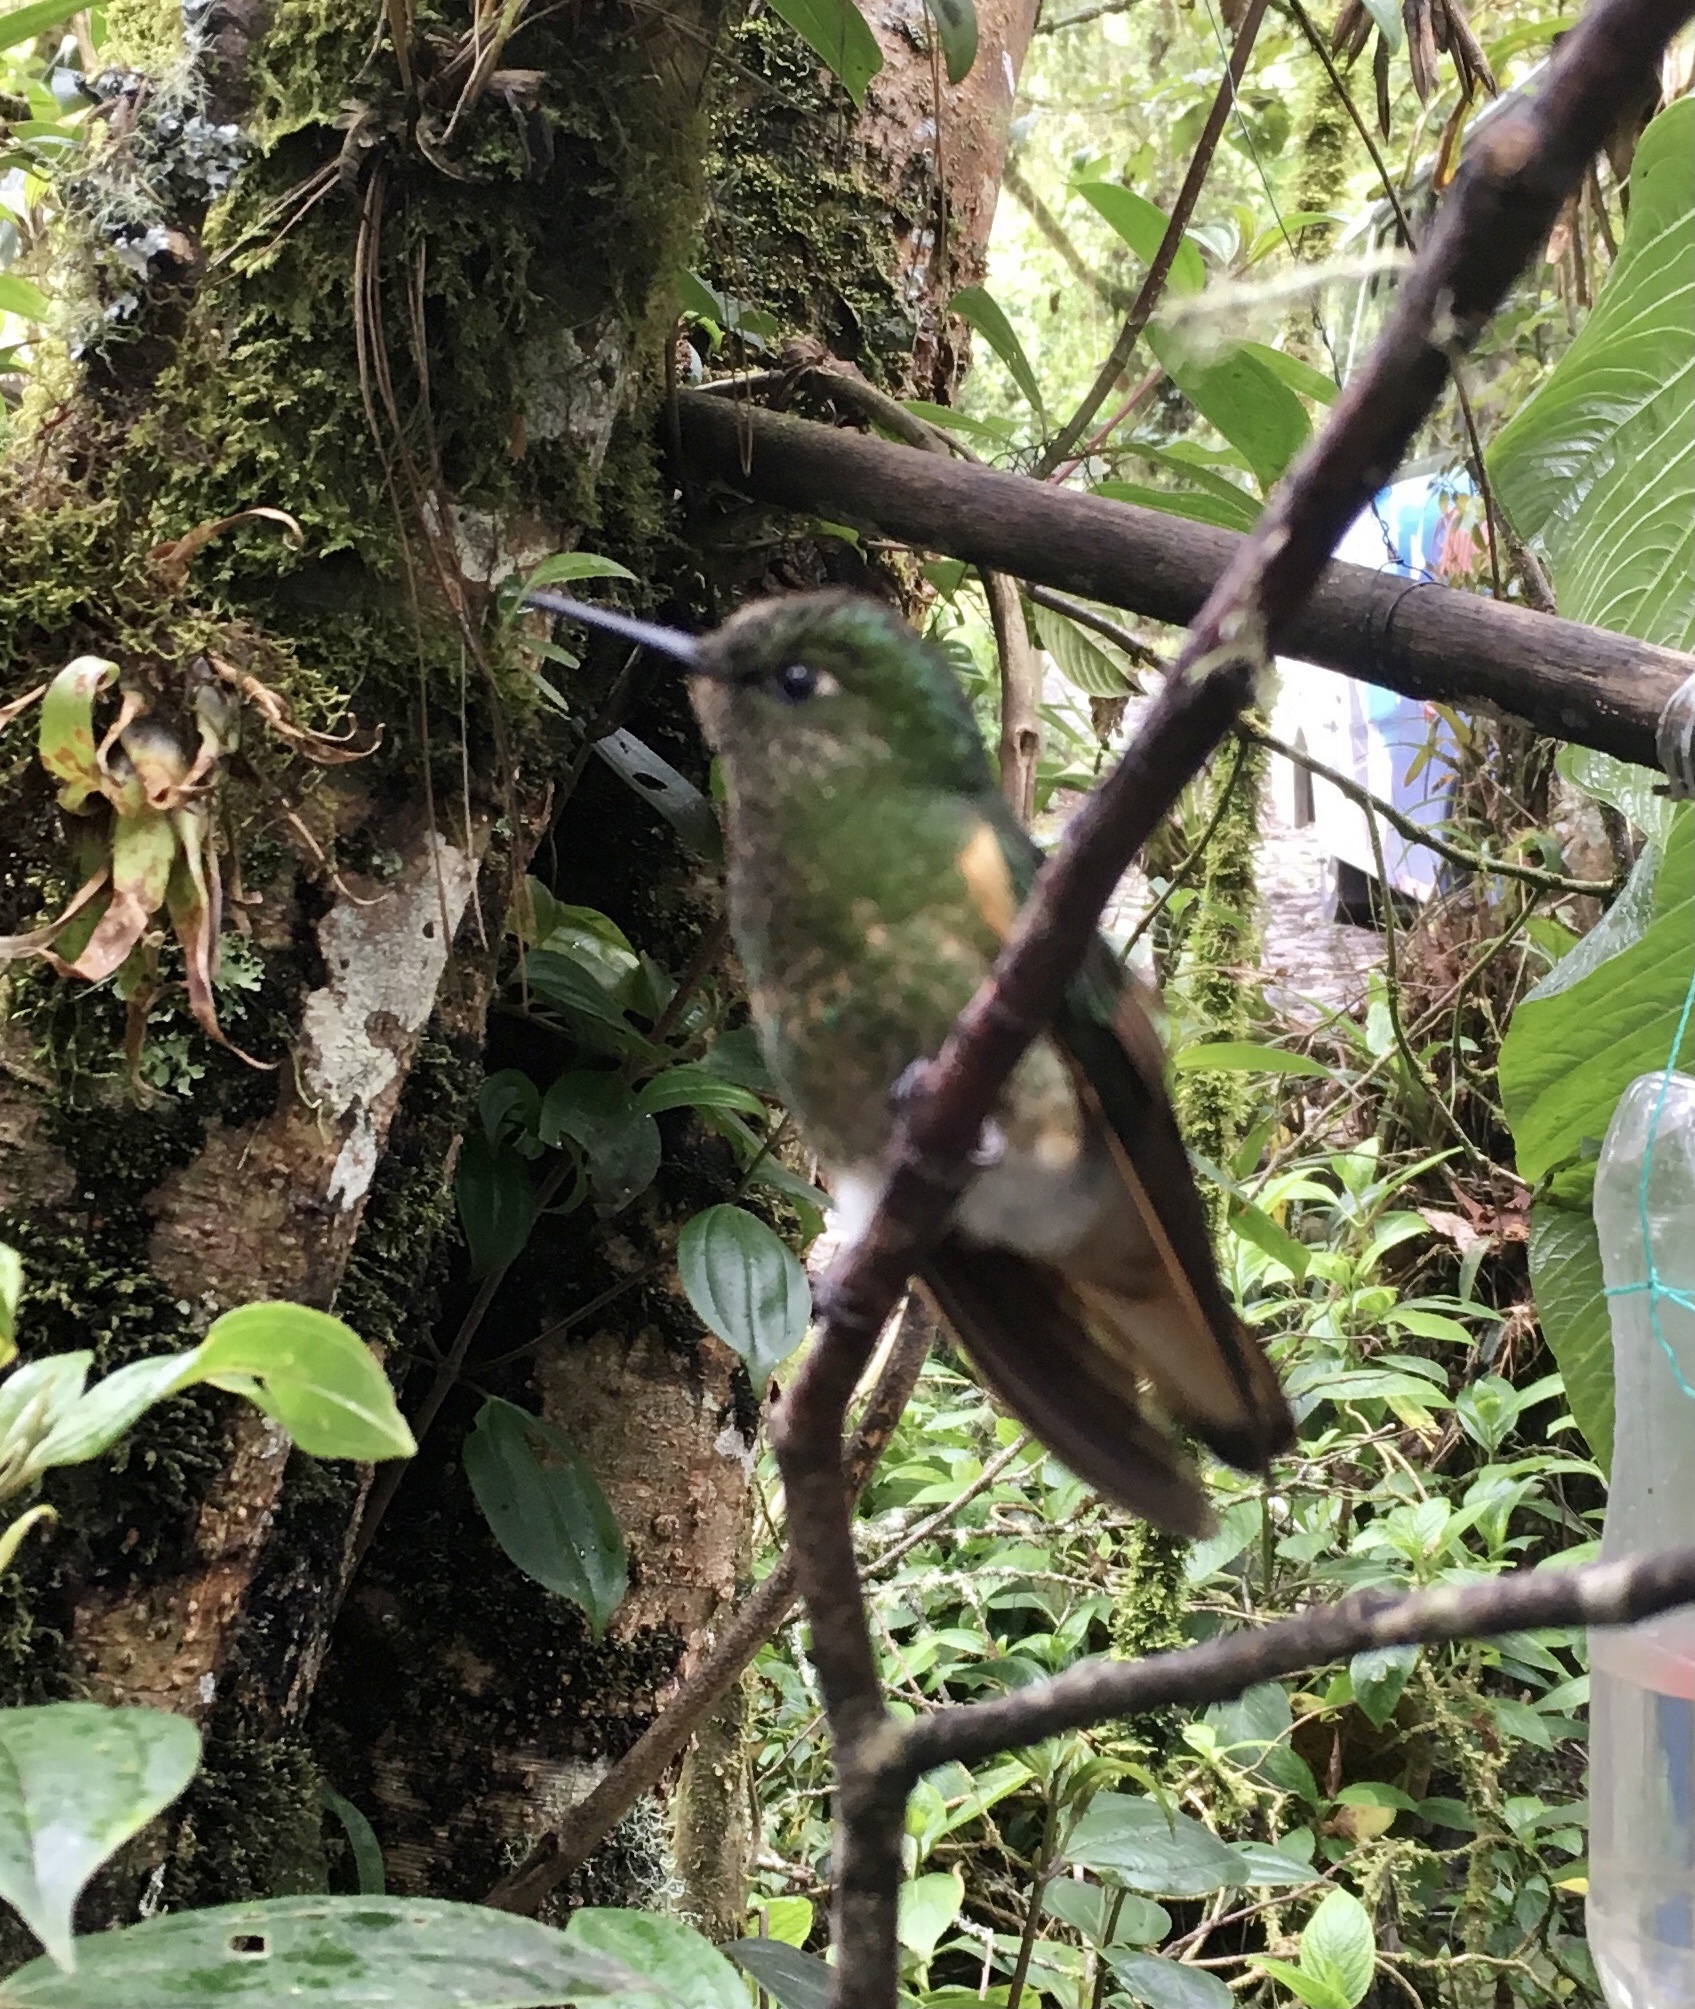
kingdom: Animalia
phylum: Chordata
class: Aves
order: Apodiformes
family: Trochilidae
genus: Boissonneaua
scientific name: Boissonneaua flavescens
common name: Buff-tailed coronet
